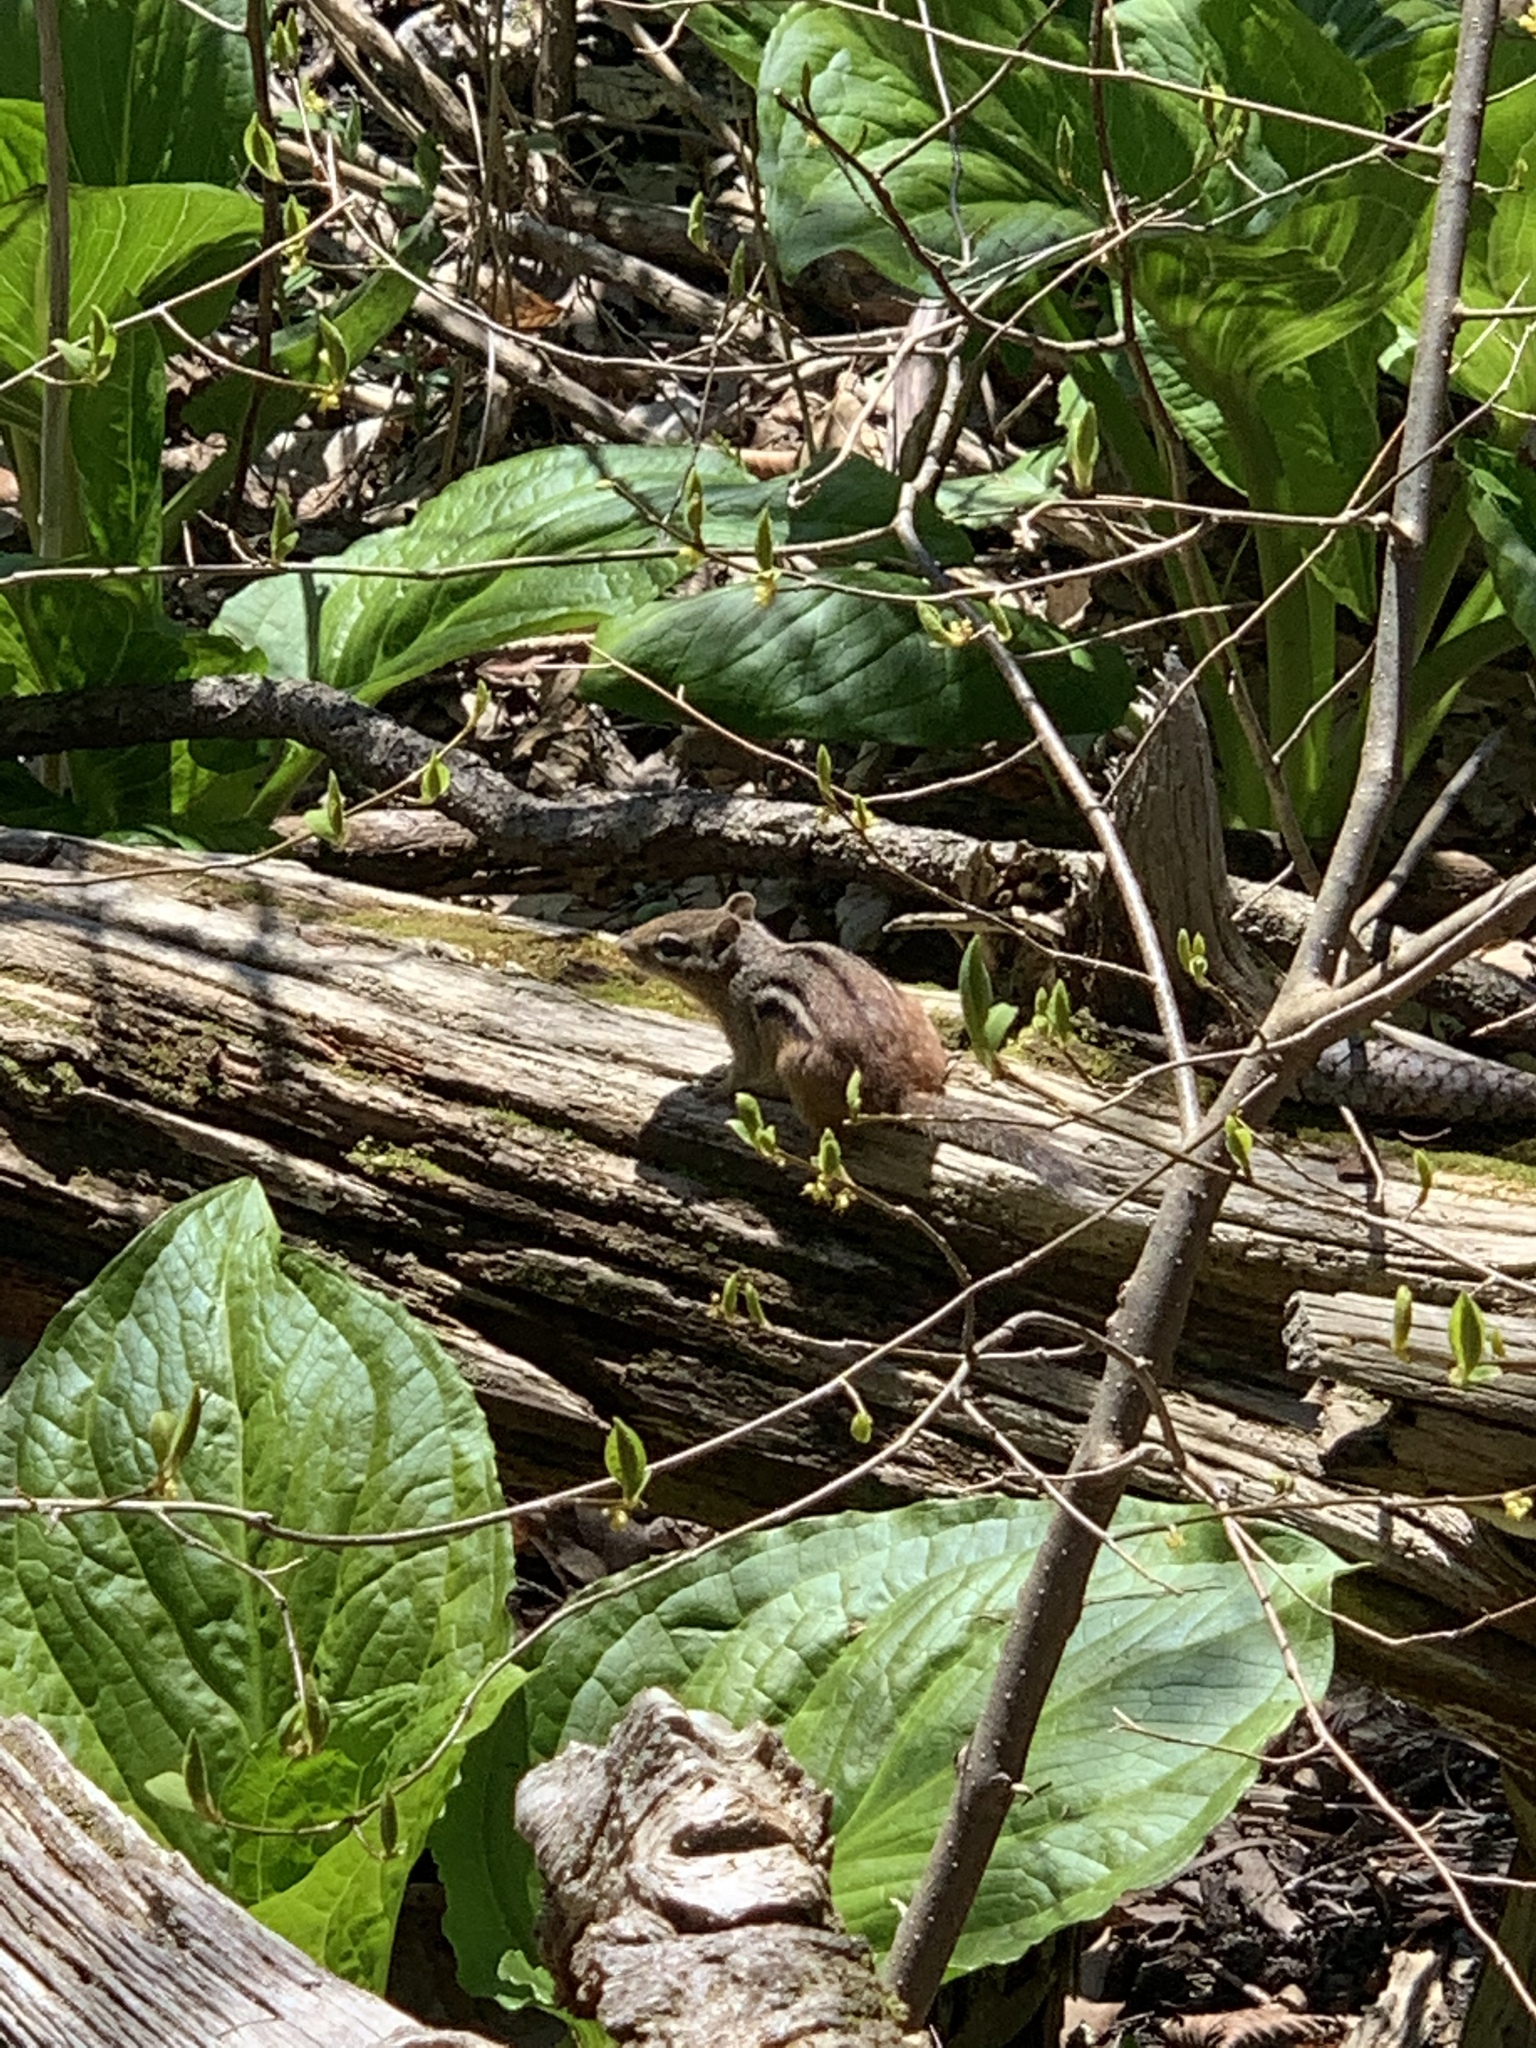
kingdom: Animalia
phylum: Chordata
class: Mammalia
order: Rodentia
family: Sciuridae
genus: Tamias
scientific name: Tamias striatus
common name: Eastern chipmunk
